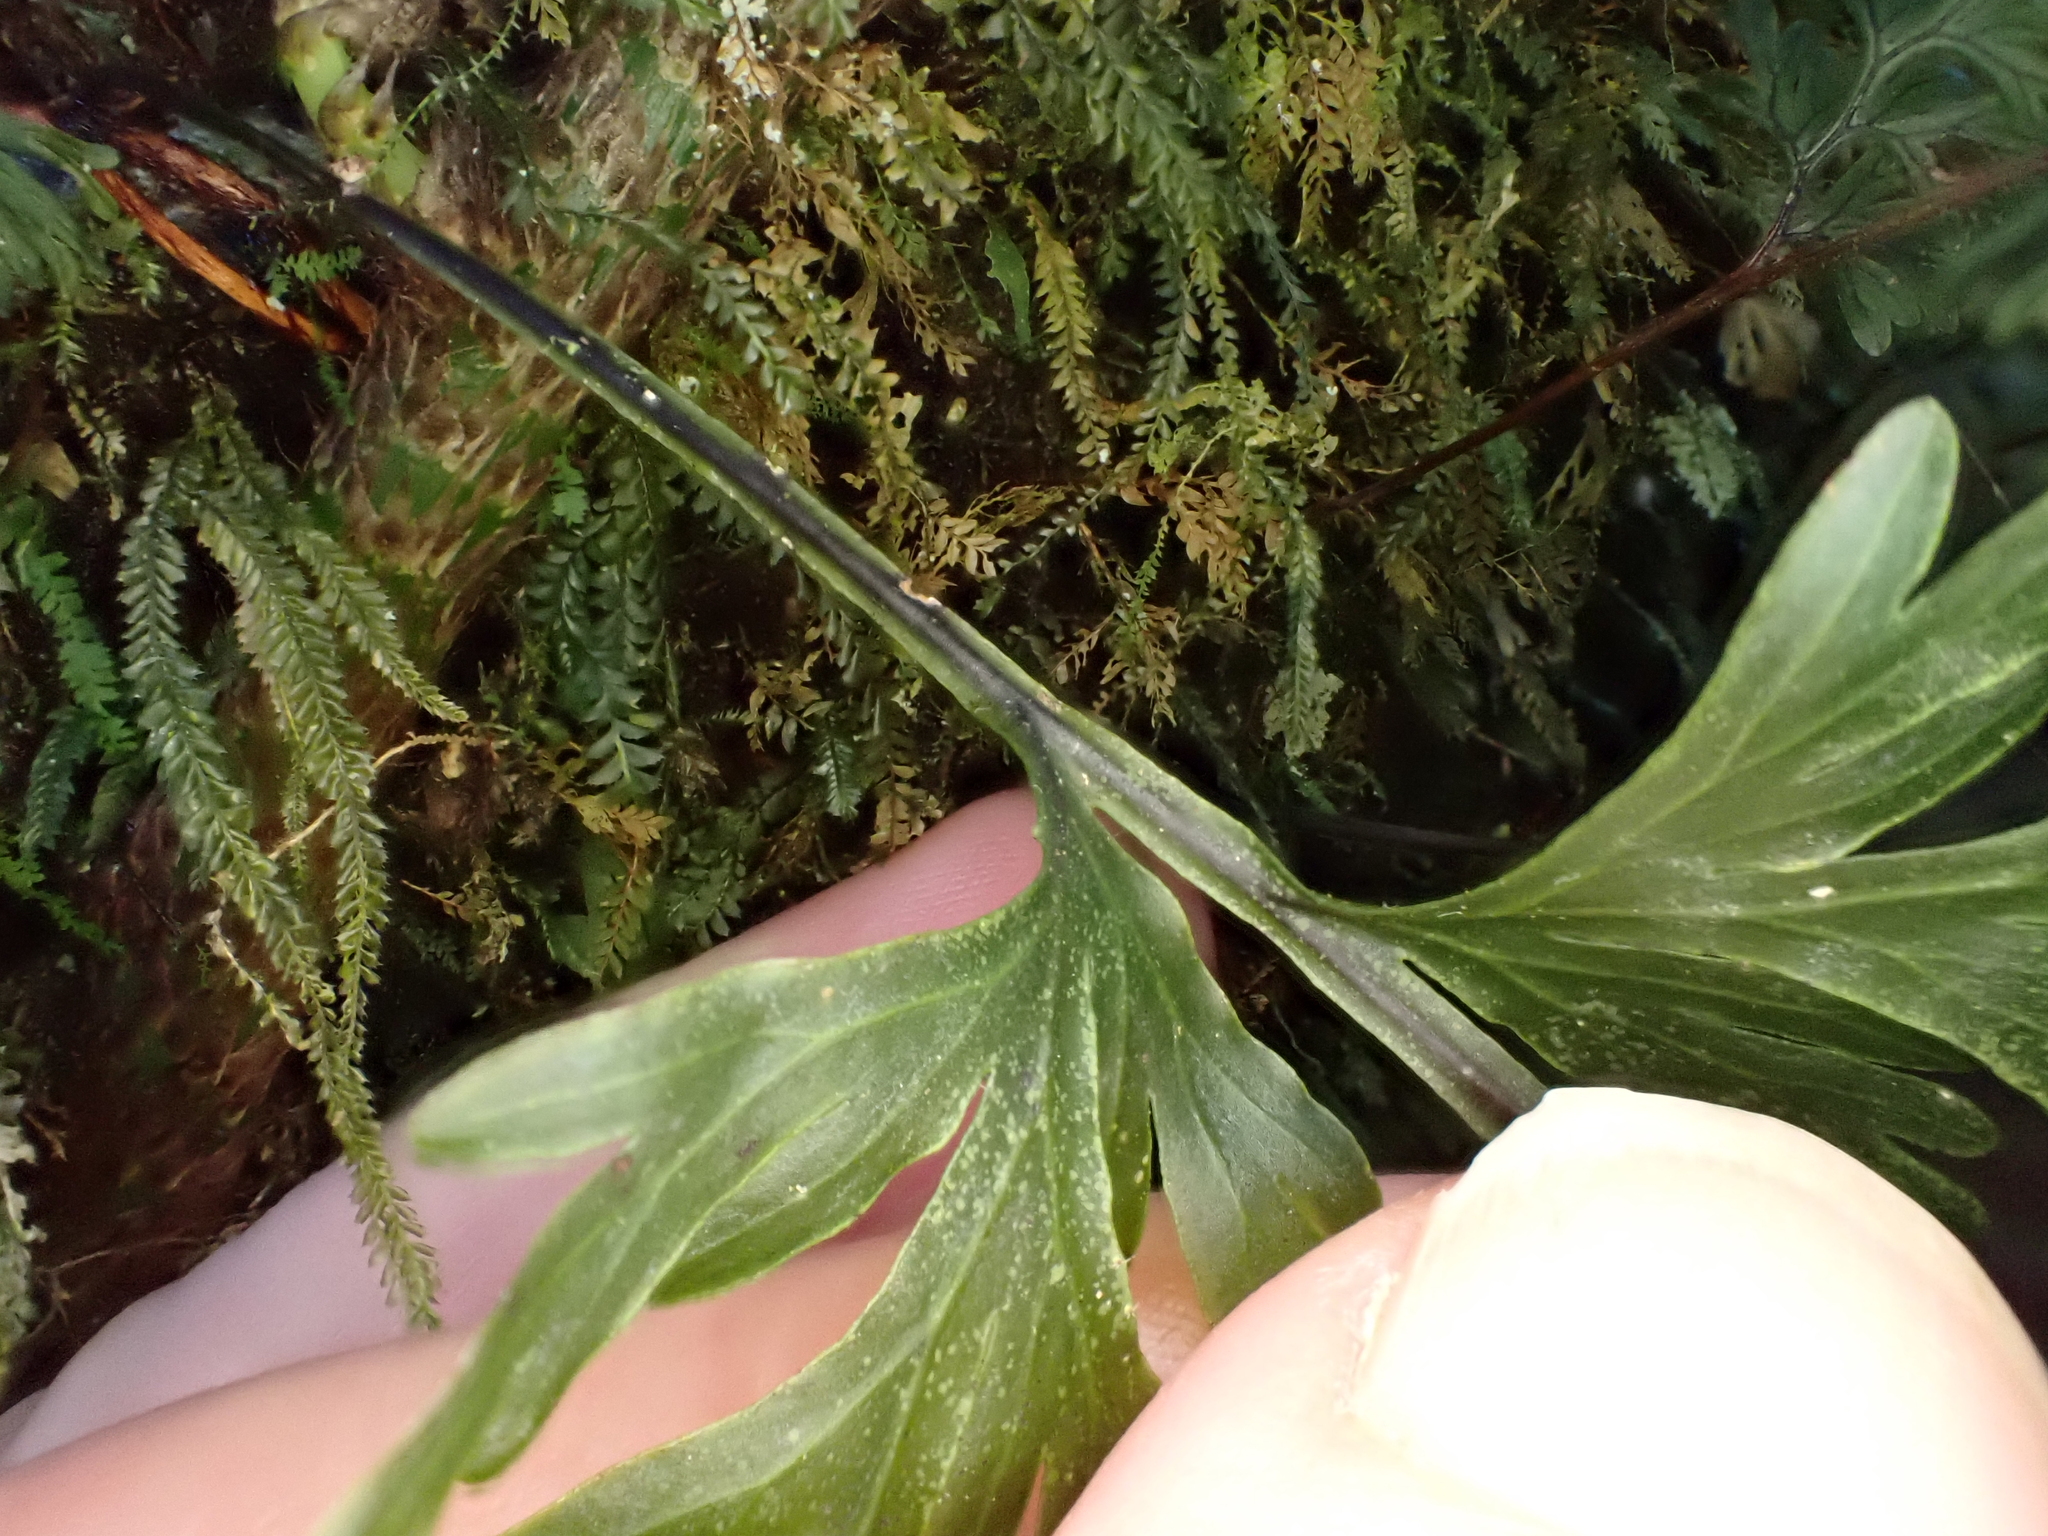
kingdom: Plantae
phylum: Tracheophyta
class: Polypodiopsida
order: Hymenophyllales
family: Hymenophyllaceae
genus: Hymenophyllum
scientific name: Hymenophyllum dilatatum
